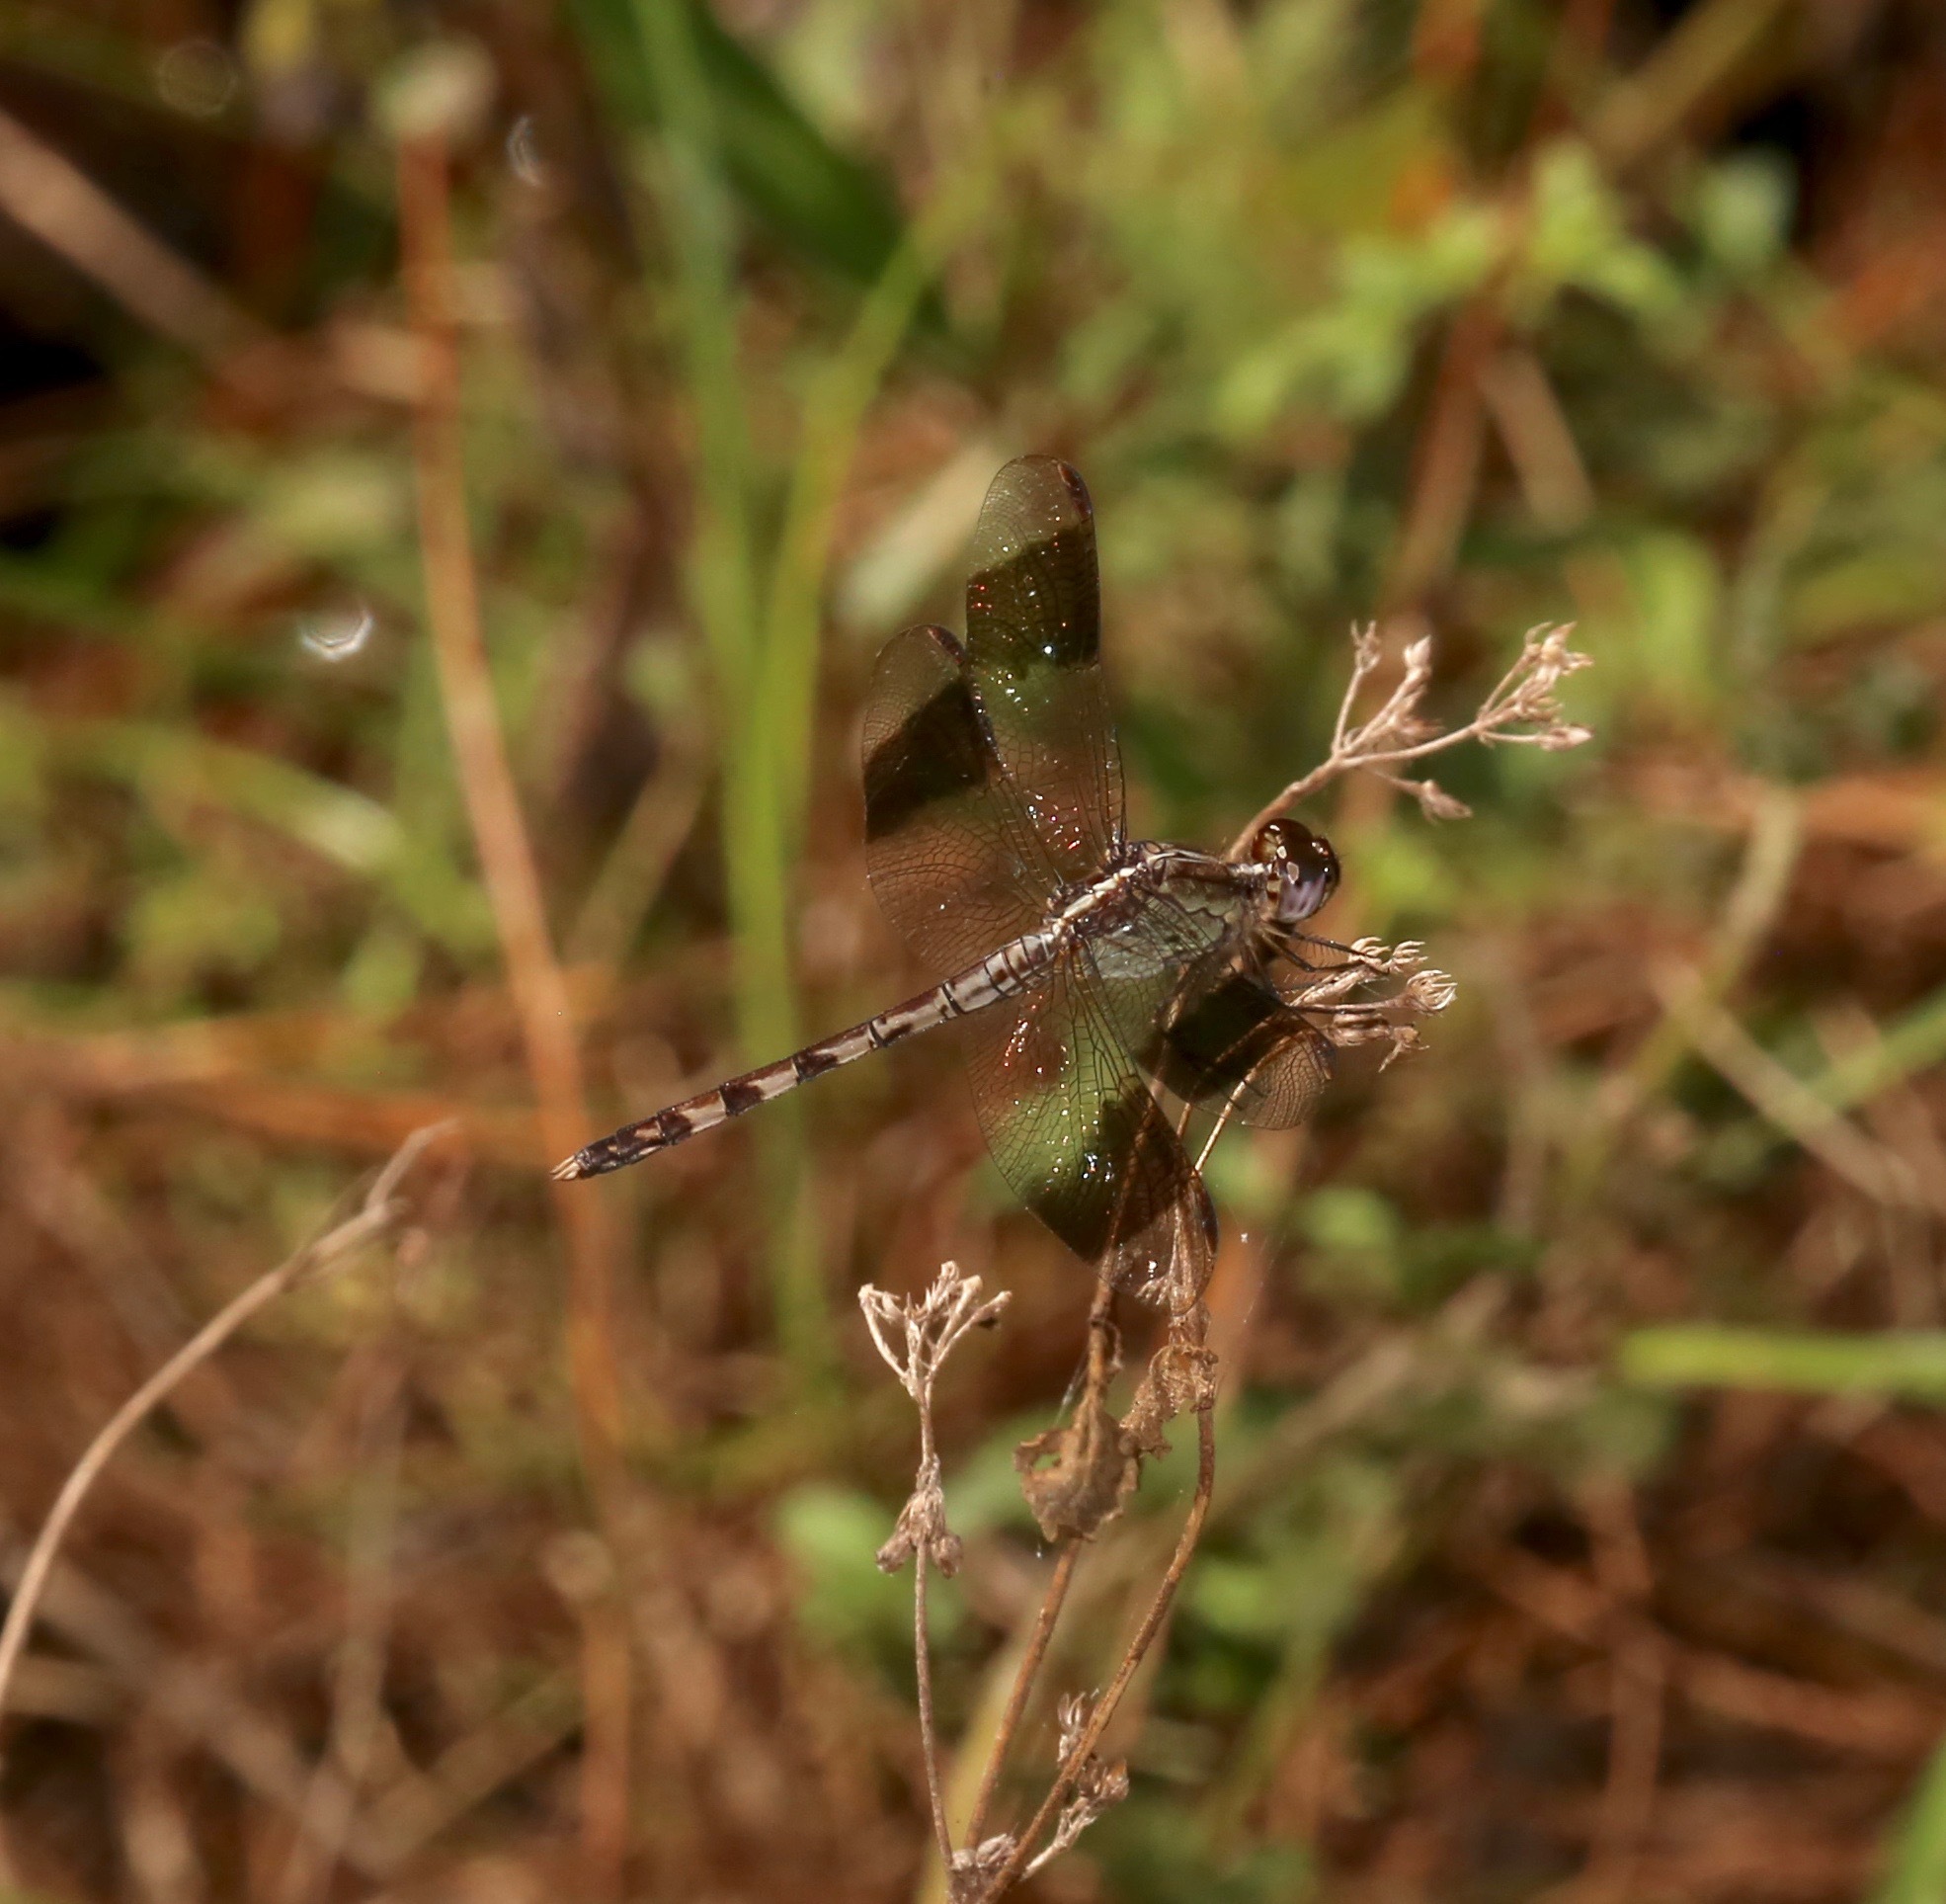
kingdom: Animalia
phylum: Arthropoda
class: Insecta
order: Odonata
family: Libellulidae
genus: Erythrodiplax
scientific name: Erythrodiplax umbrata
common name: Band-winged dragonlet
